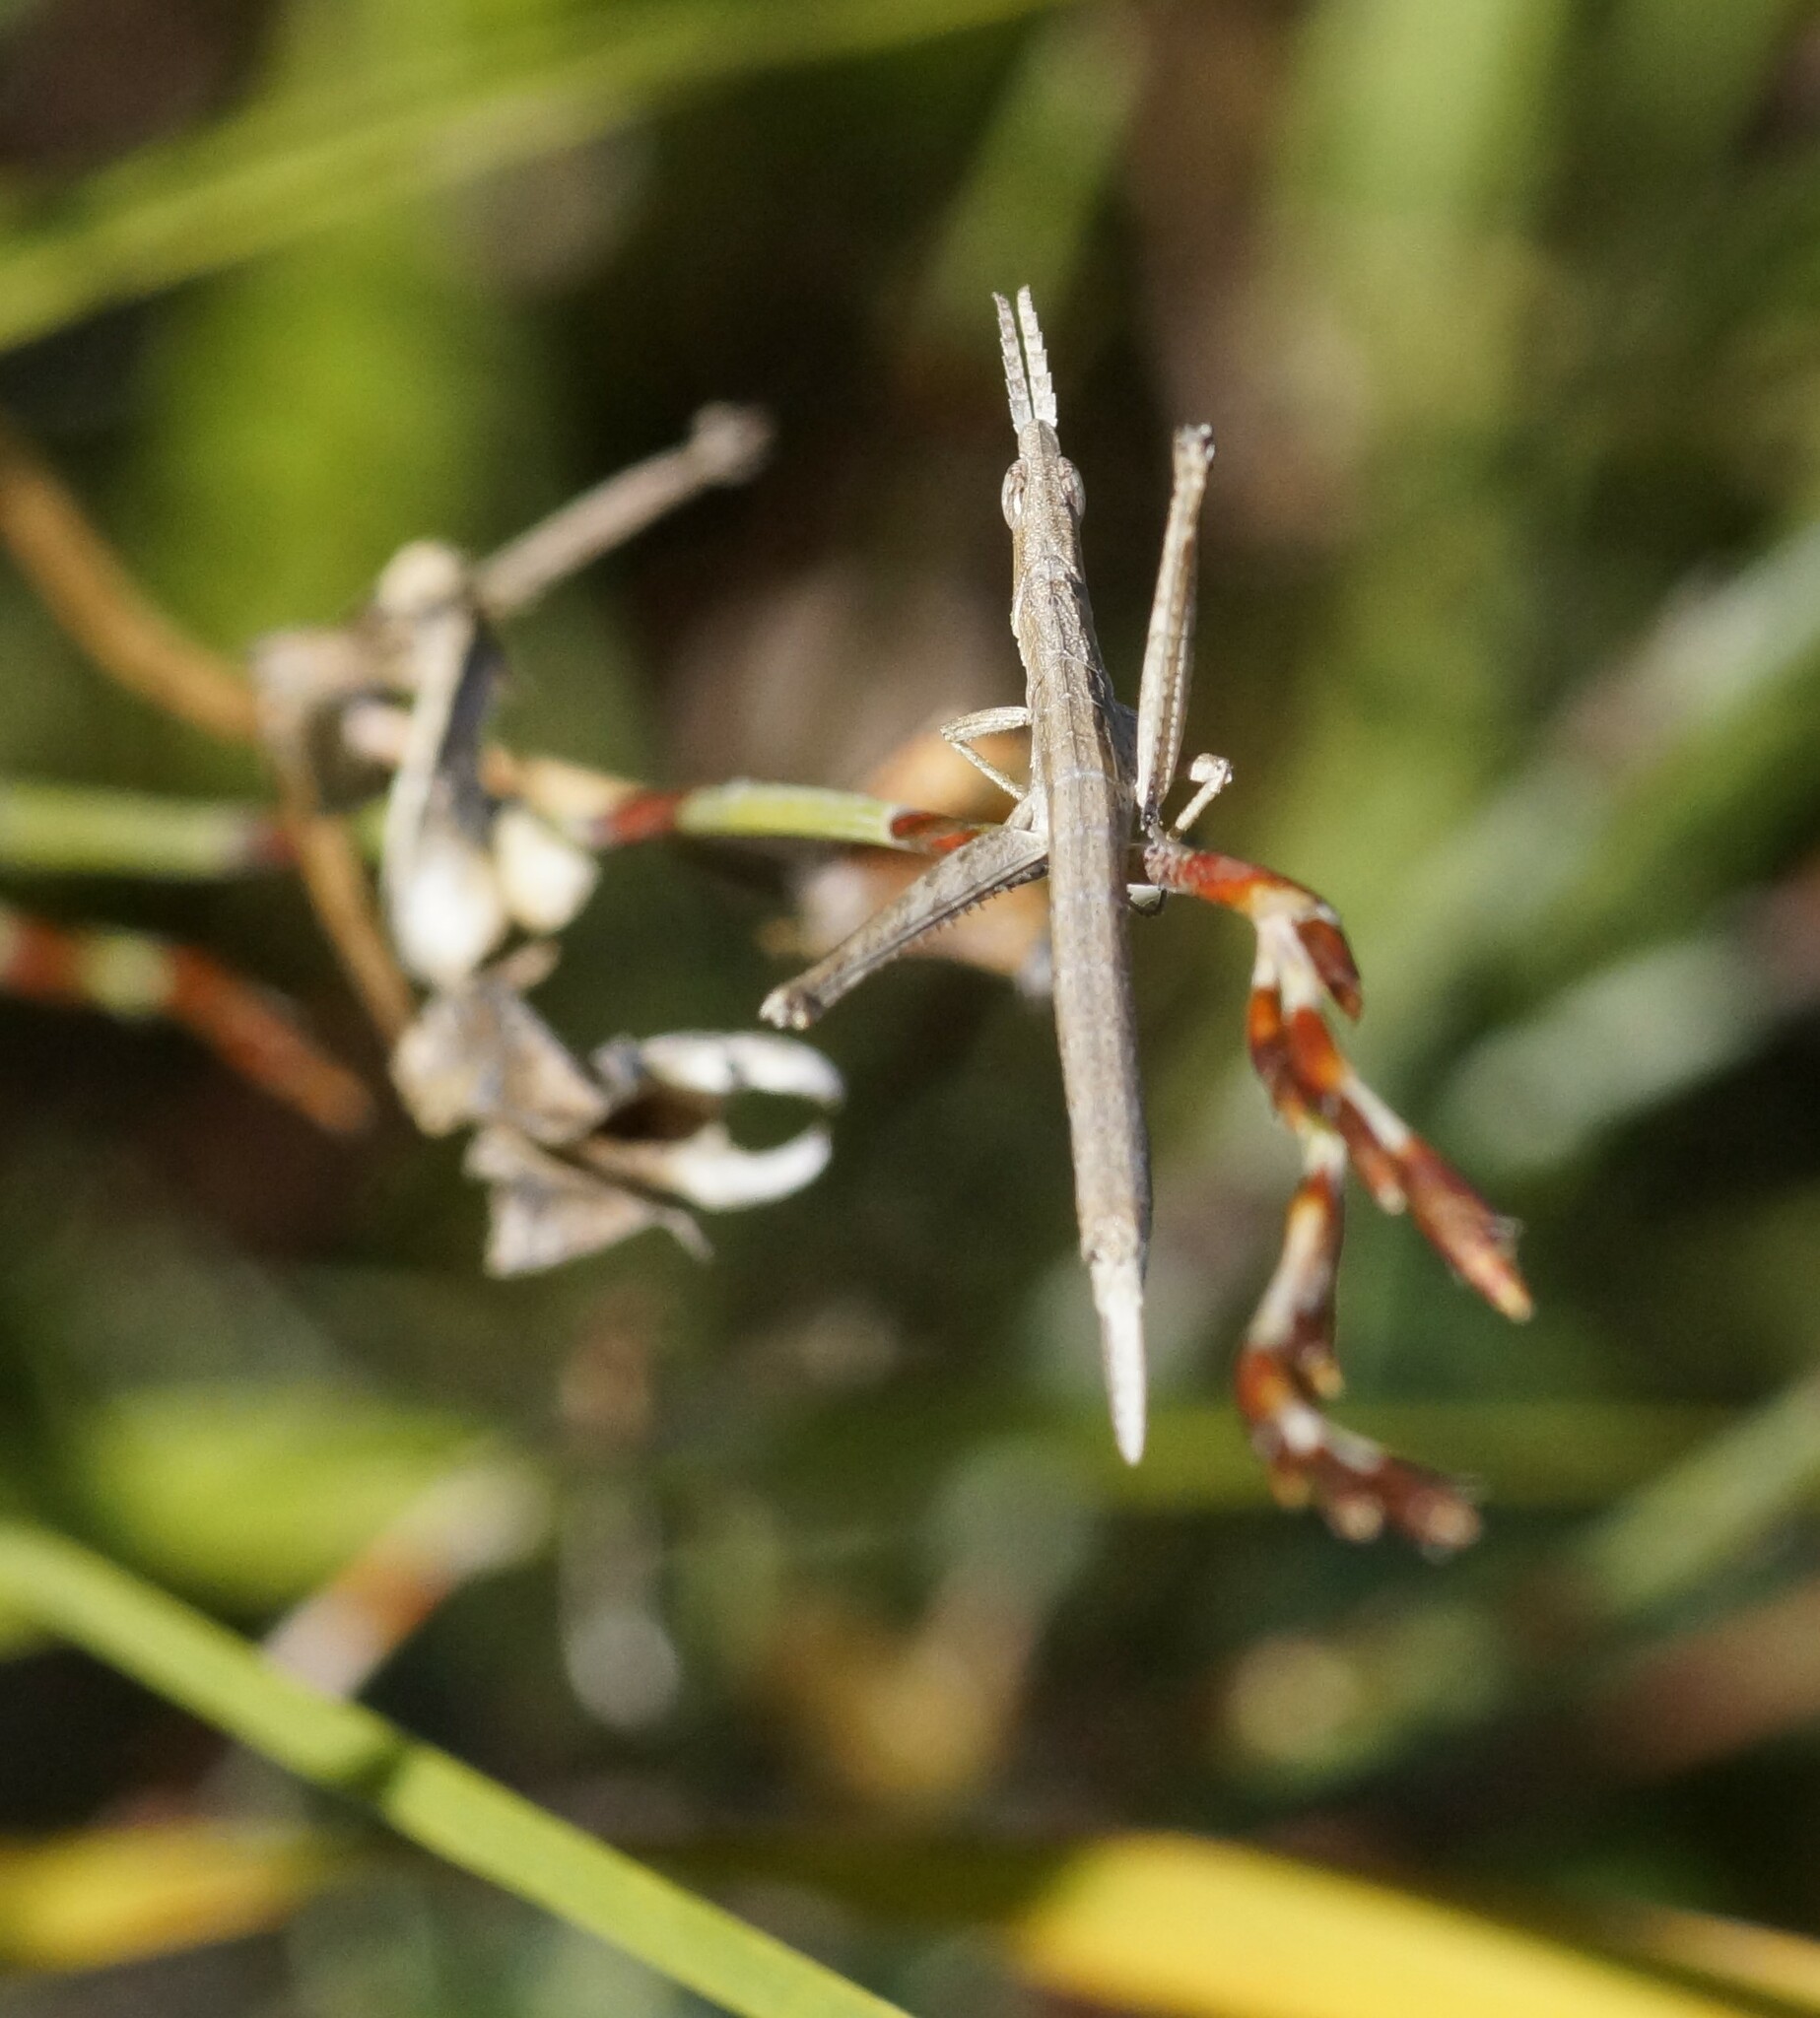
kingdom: Animalia
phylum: Arthropoda
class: Insecta
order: Orthoptera
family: Morabidae
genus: Vandiemenella
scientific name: Vandiemenella viatica
